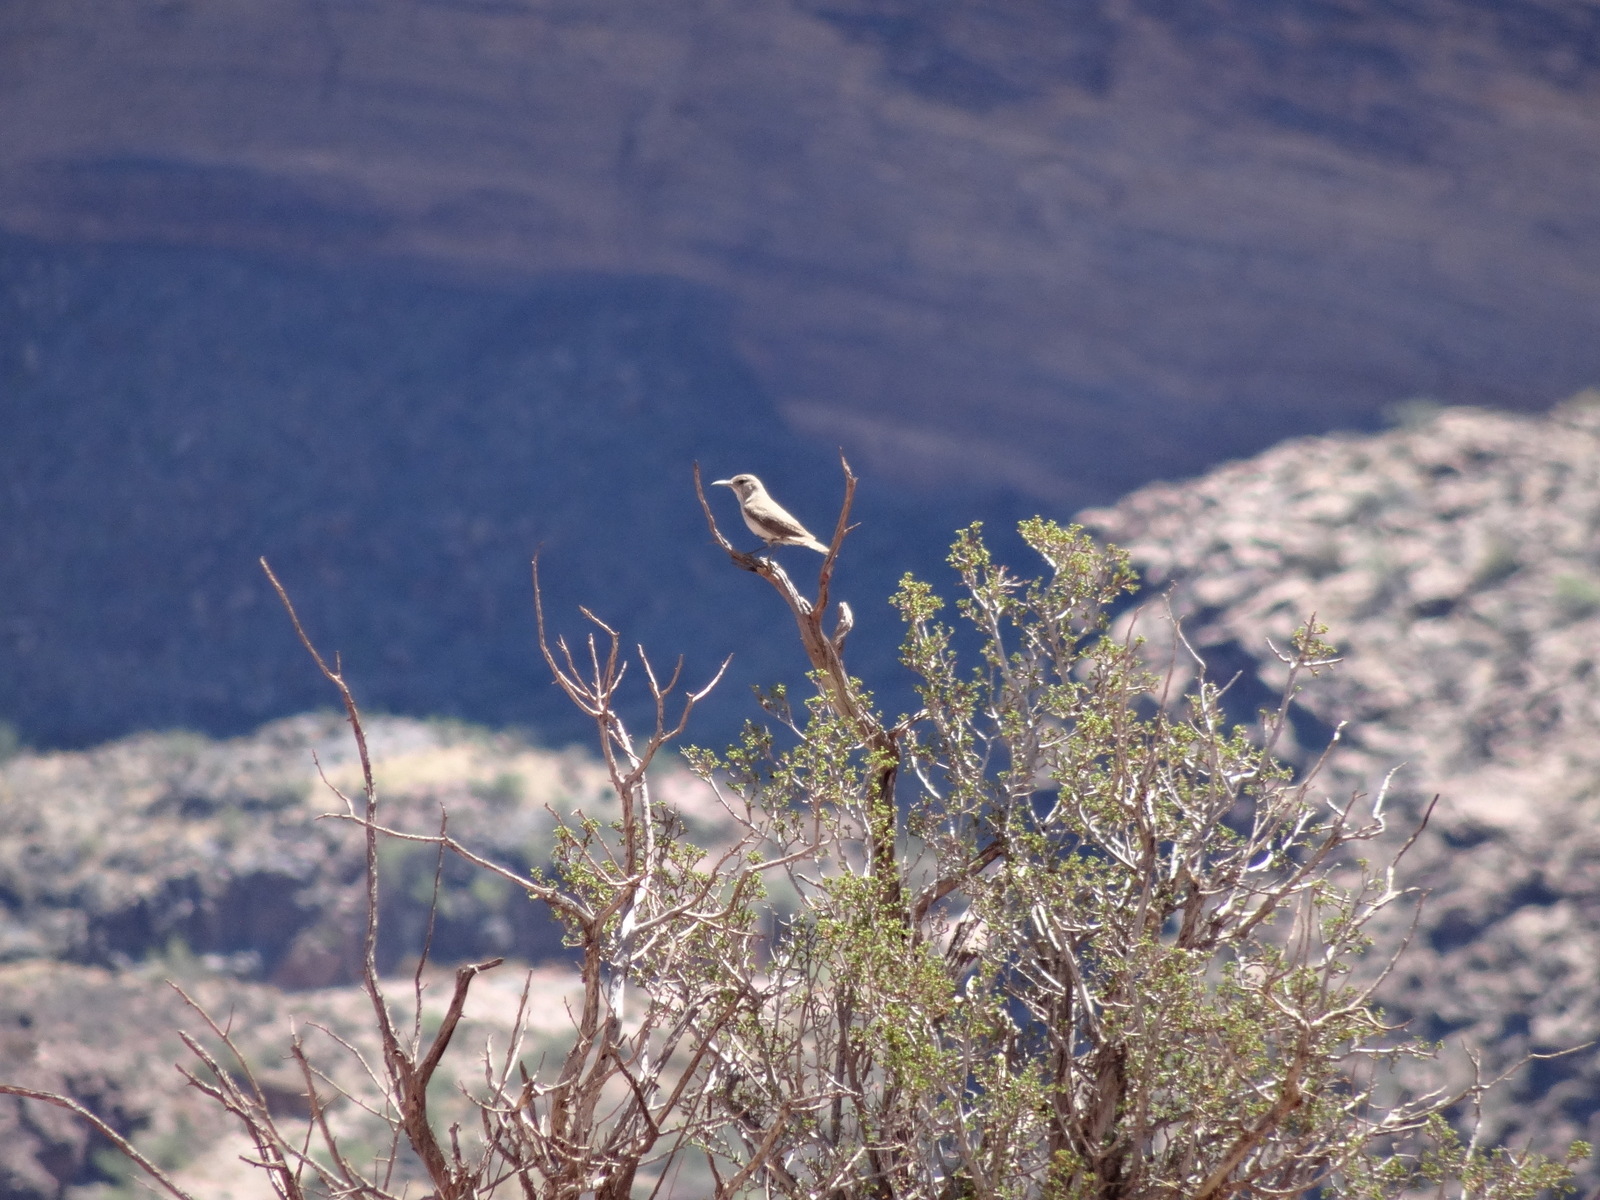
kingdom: Animalia
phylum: Chordata
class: Aves
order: Passeriformes
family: Troglodytidae
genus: Salpinctes
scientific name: Salpinctes obsoletus
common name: Rock wren
